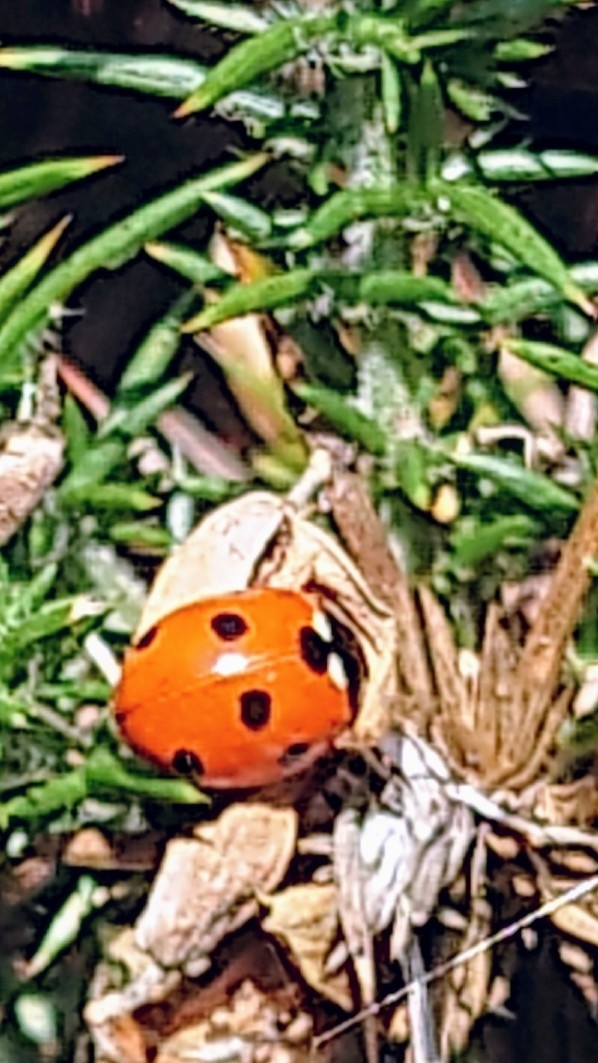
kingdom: Animalia
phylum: Arthropoda
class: Insecta
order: Coleoptera
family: Coccinellidae
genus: Coccinella
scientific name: Coccinella septempunctata
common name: Sevenspotted lady beetle
